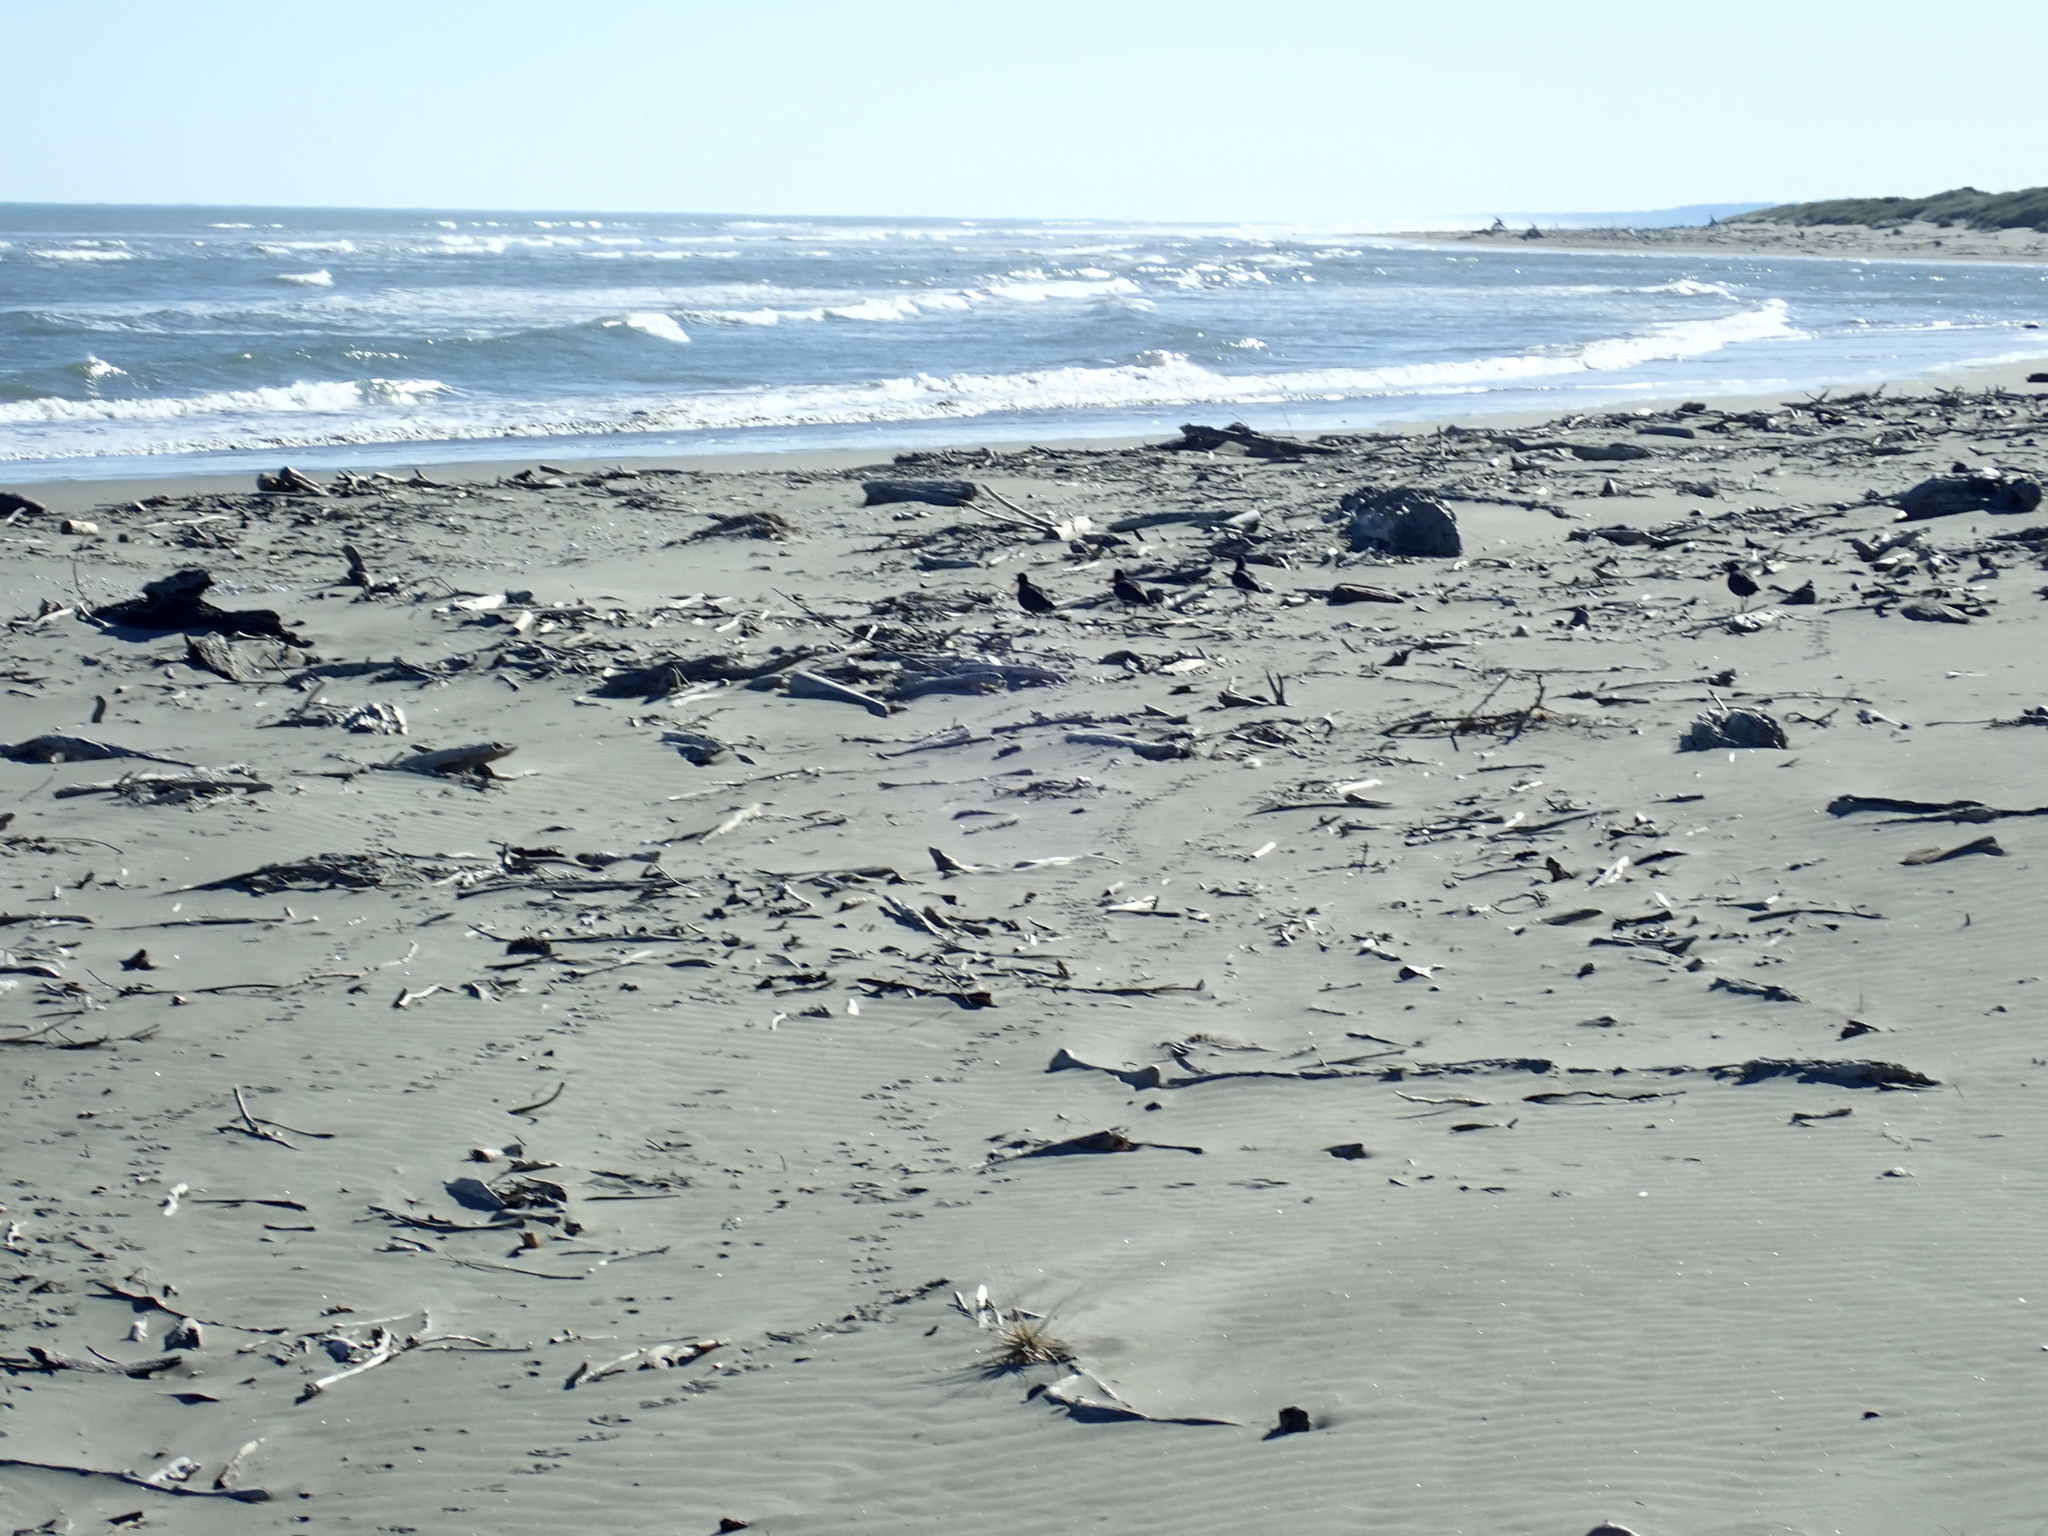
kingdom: Animalia
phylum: Chordata
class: Aves
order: Charadriiformes
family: Haematopodidae
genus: Haematopus
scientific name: Haematopus unicolor
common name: Variable oystercatcher
